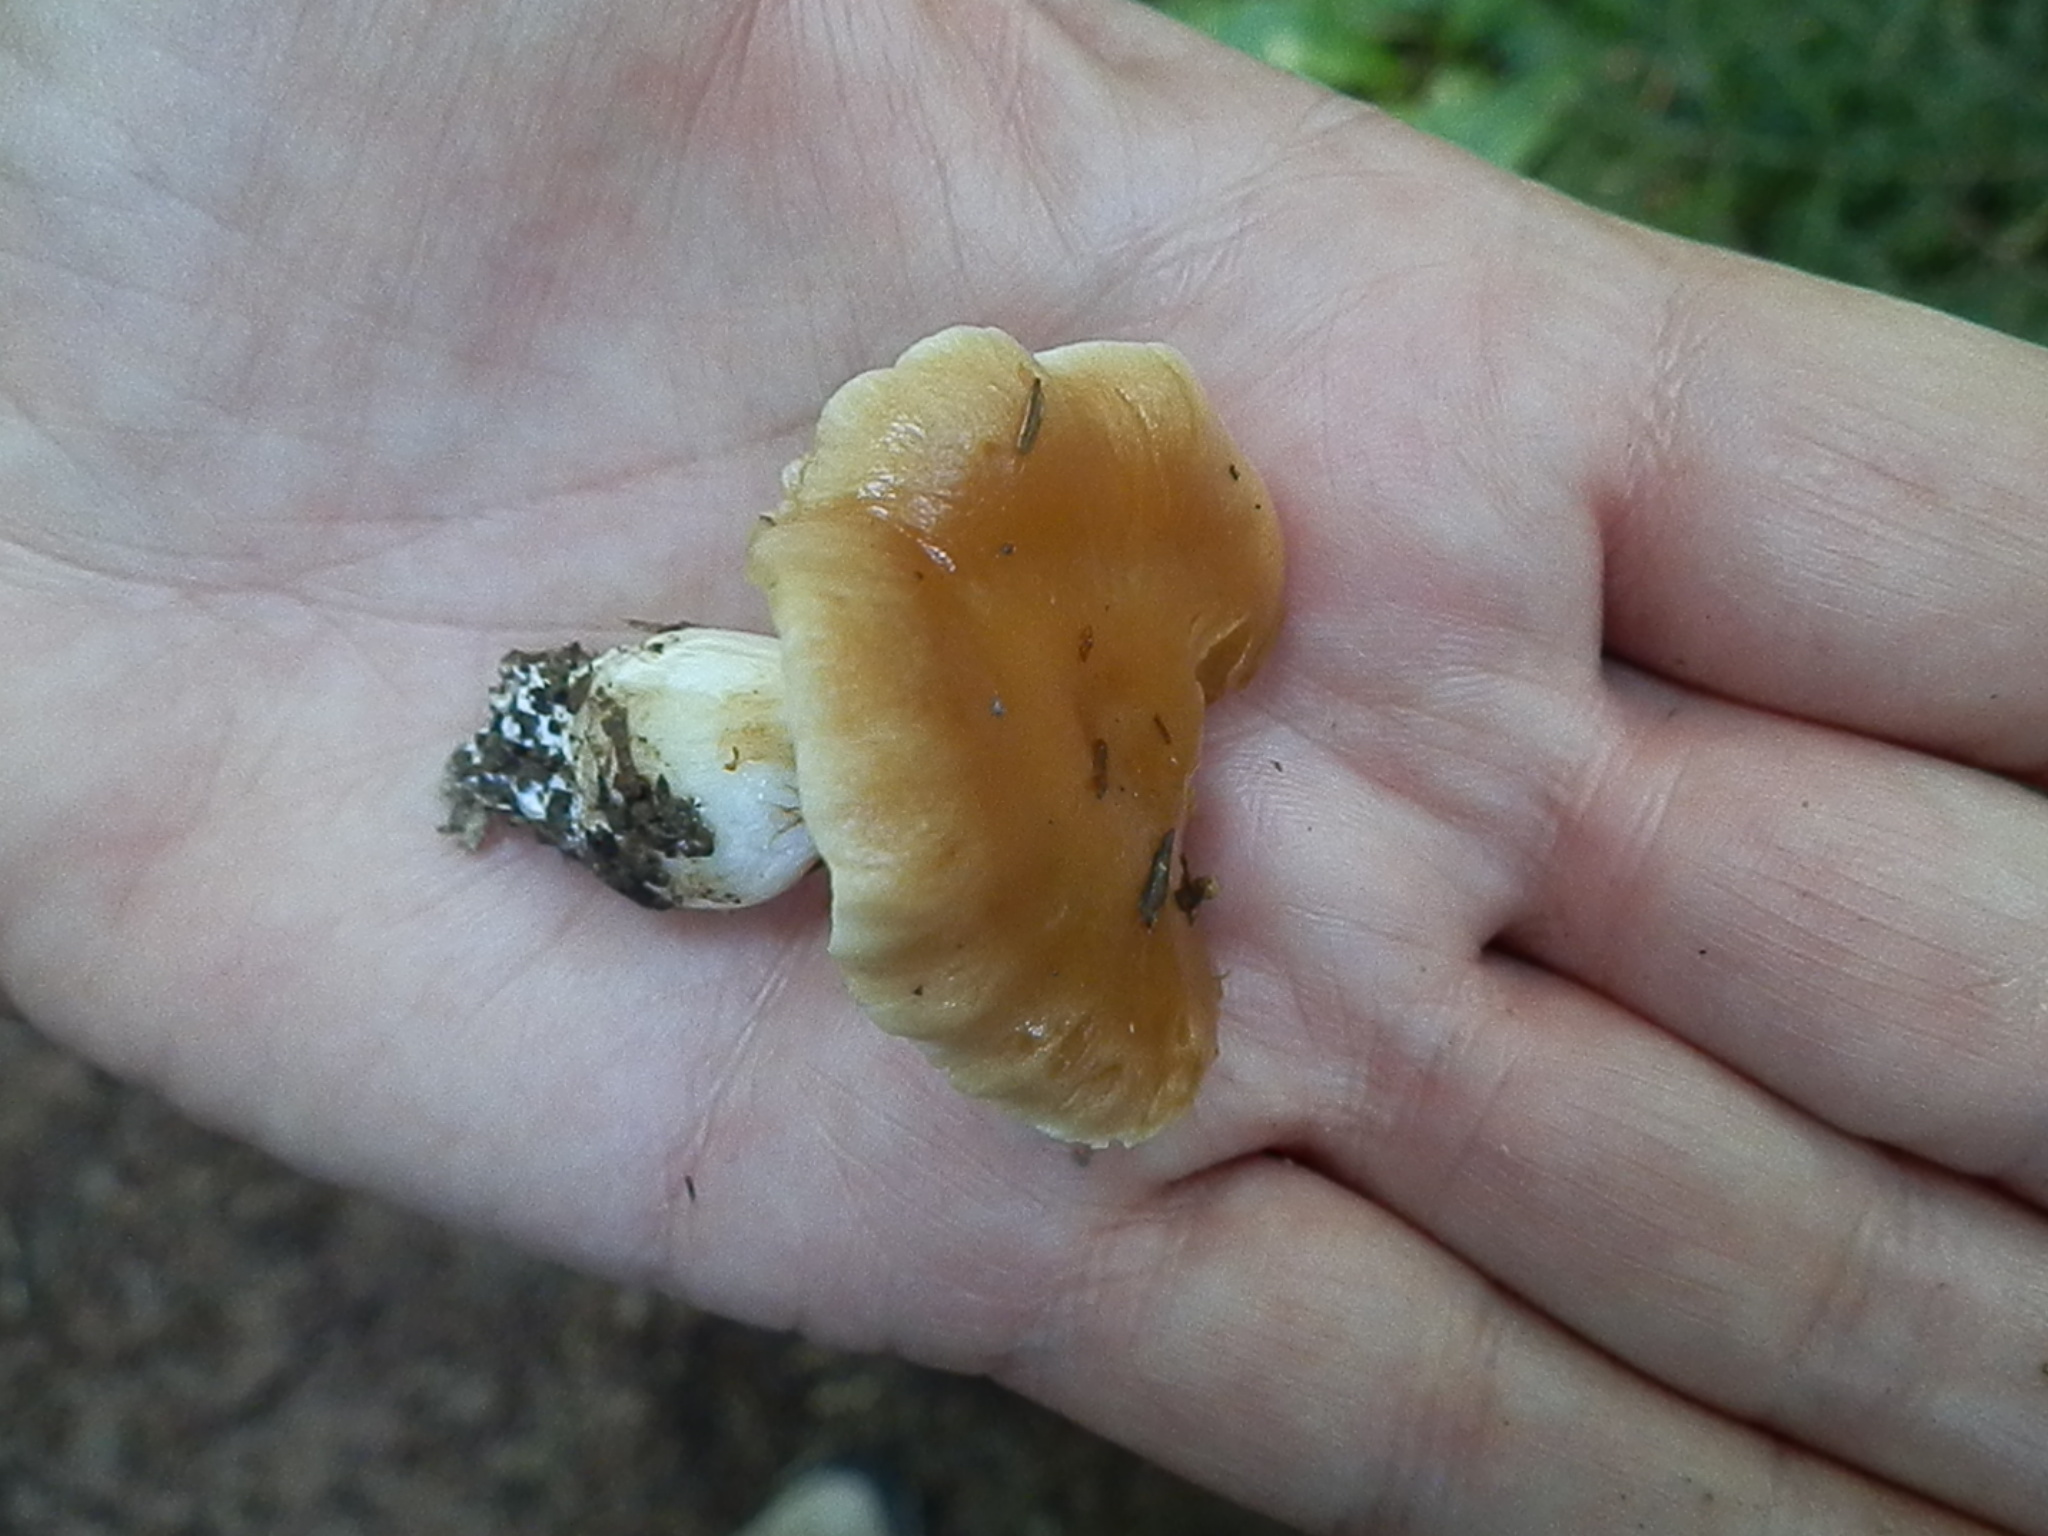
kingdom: Fungi
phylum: Basidiomycota
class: Agaricomycetes
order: Agaricales
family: Cortinariaceae
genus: Thaxterogaster
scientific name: Thaxterogaster vibratilis
